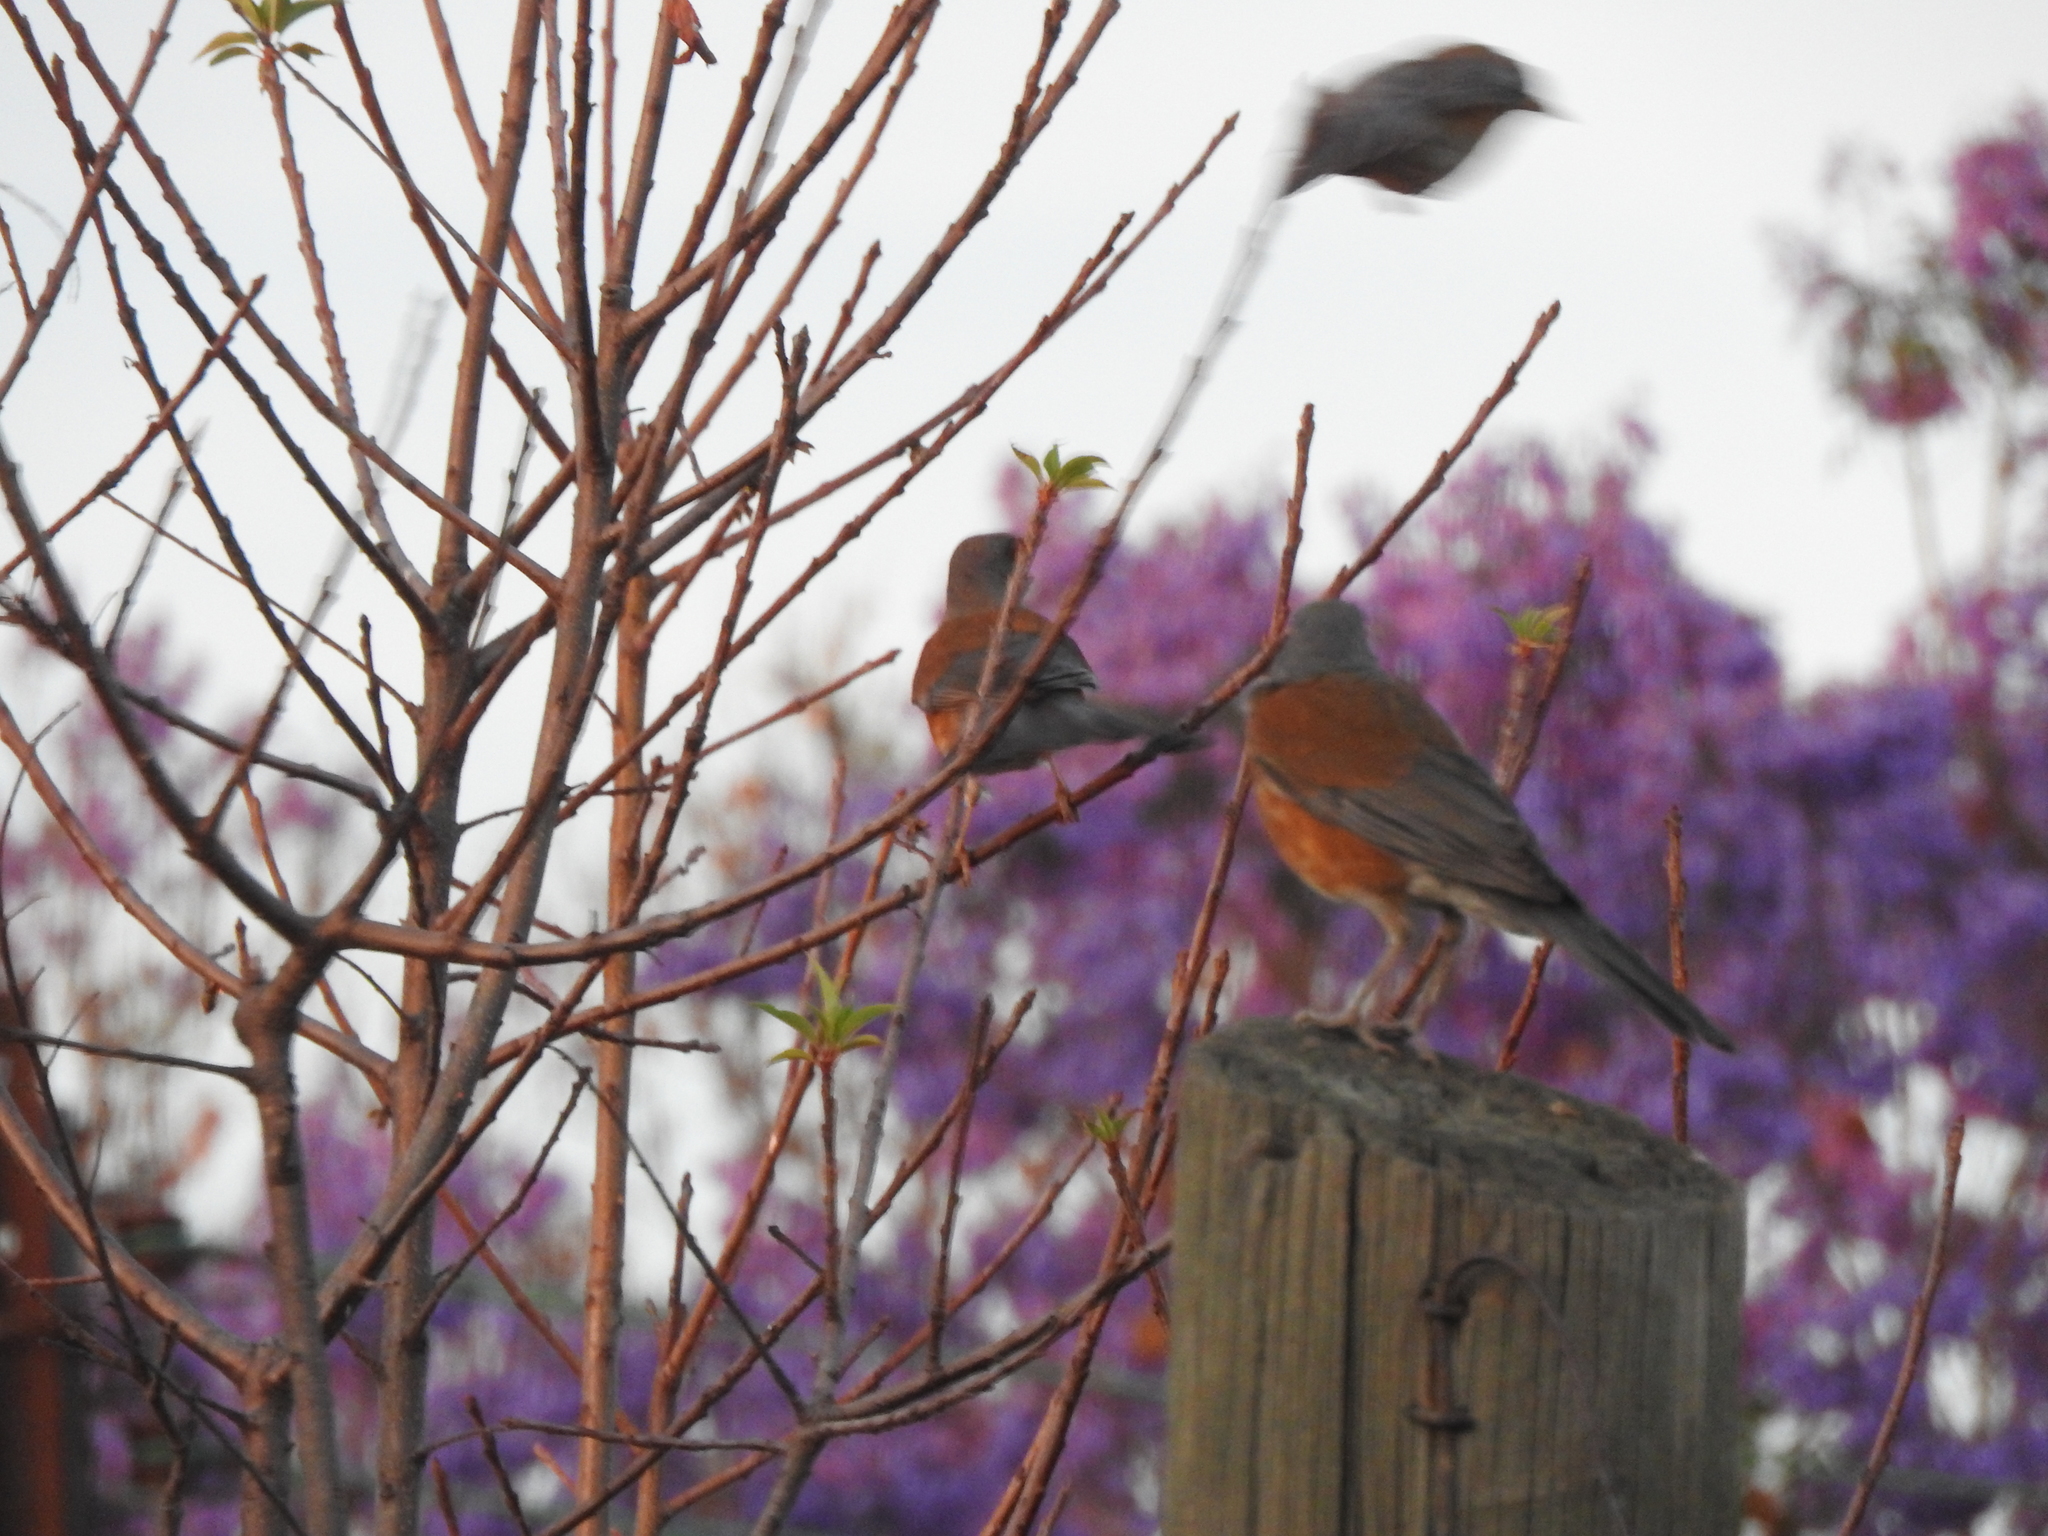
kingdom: Animalia
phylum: Chordata
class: Aves
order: Passeriformes
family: Turdidae
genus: Turdus
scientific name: Turdus rufopalliatus
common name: Rufous-backed robin
